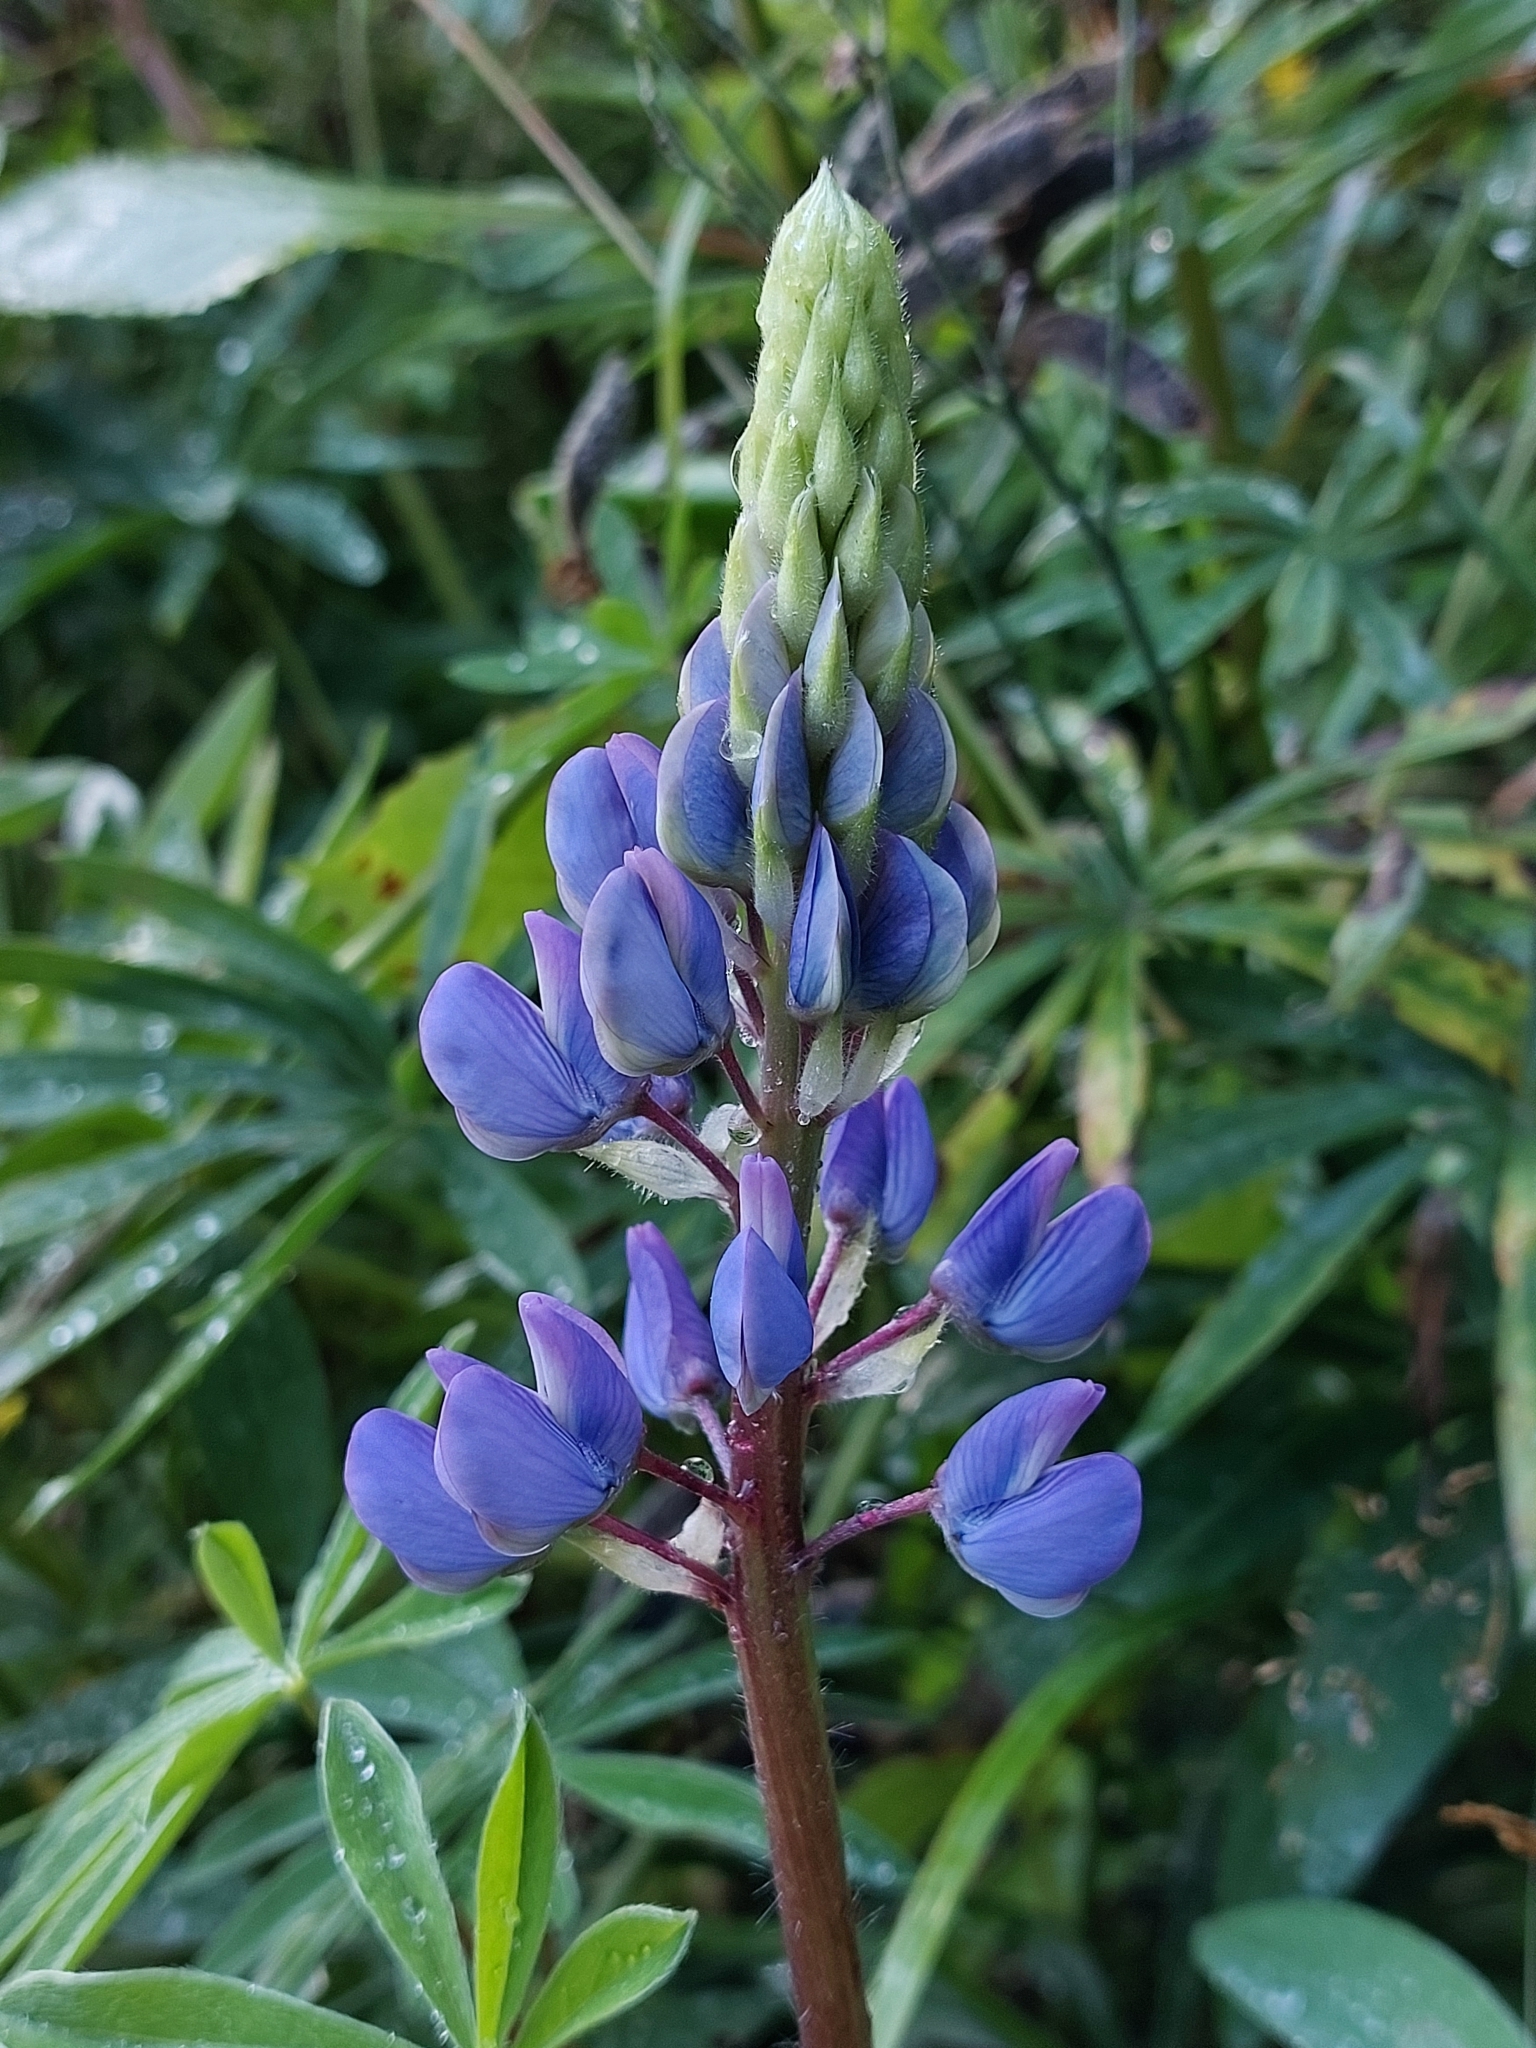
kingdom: Plantae
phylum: Tracheophyta
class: Magnoliopsida
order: Fabales
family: Fabaceae
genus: Lupinus
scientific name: Lupinus polyphyllus
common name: Garden lupin
